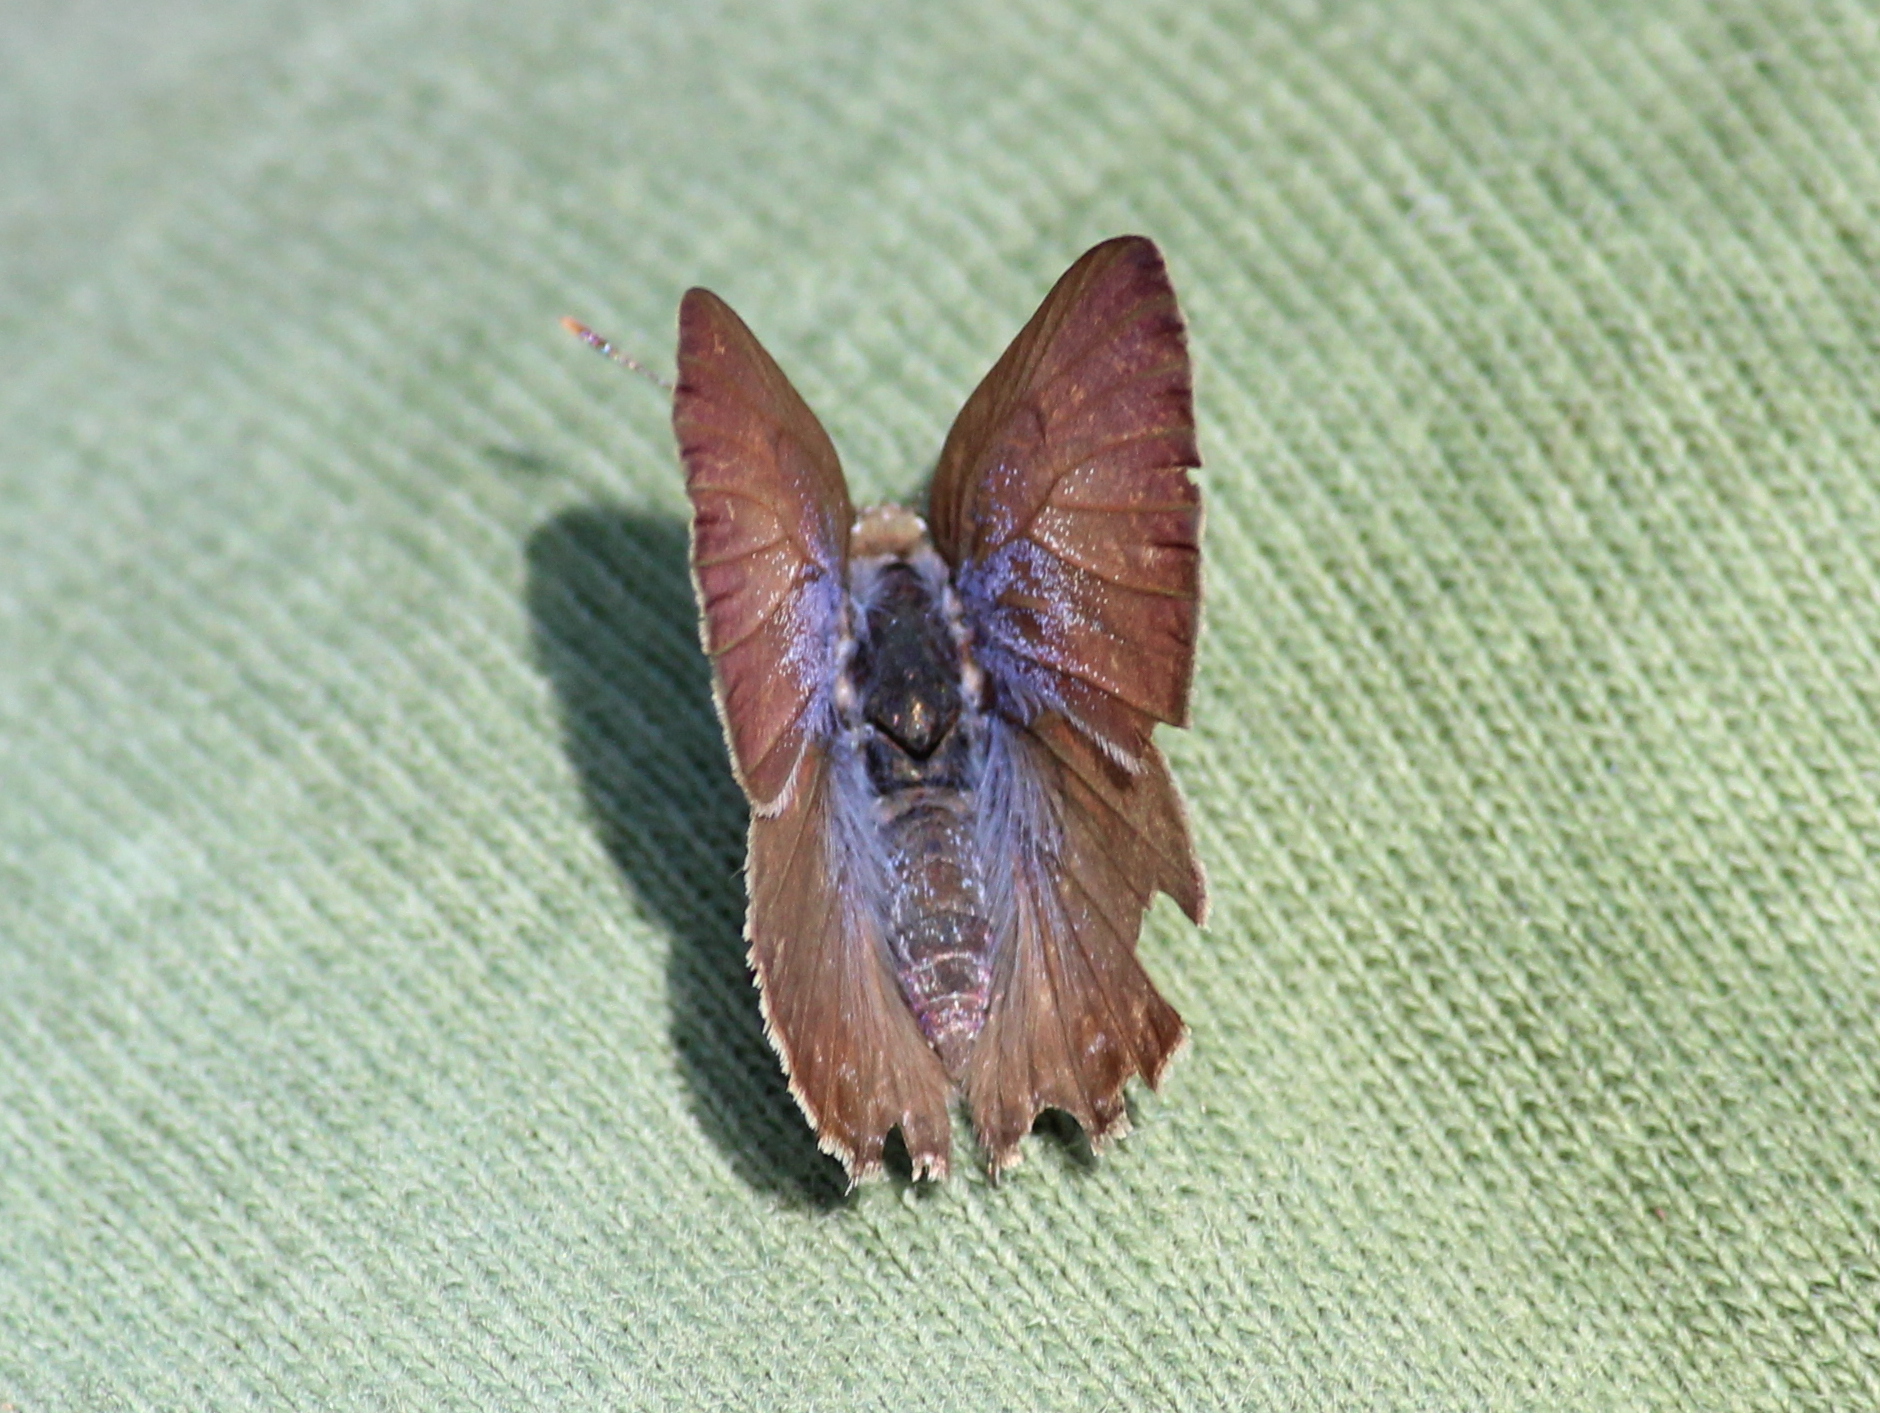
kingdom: Animalia
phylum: Arthropoda
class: Insecta
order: Lepidoptera
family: Lycaenidae
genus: Anthene
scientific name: Anthene lycaenina
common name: Pointed ciliate blue
